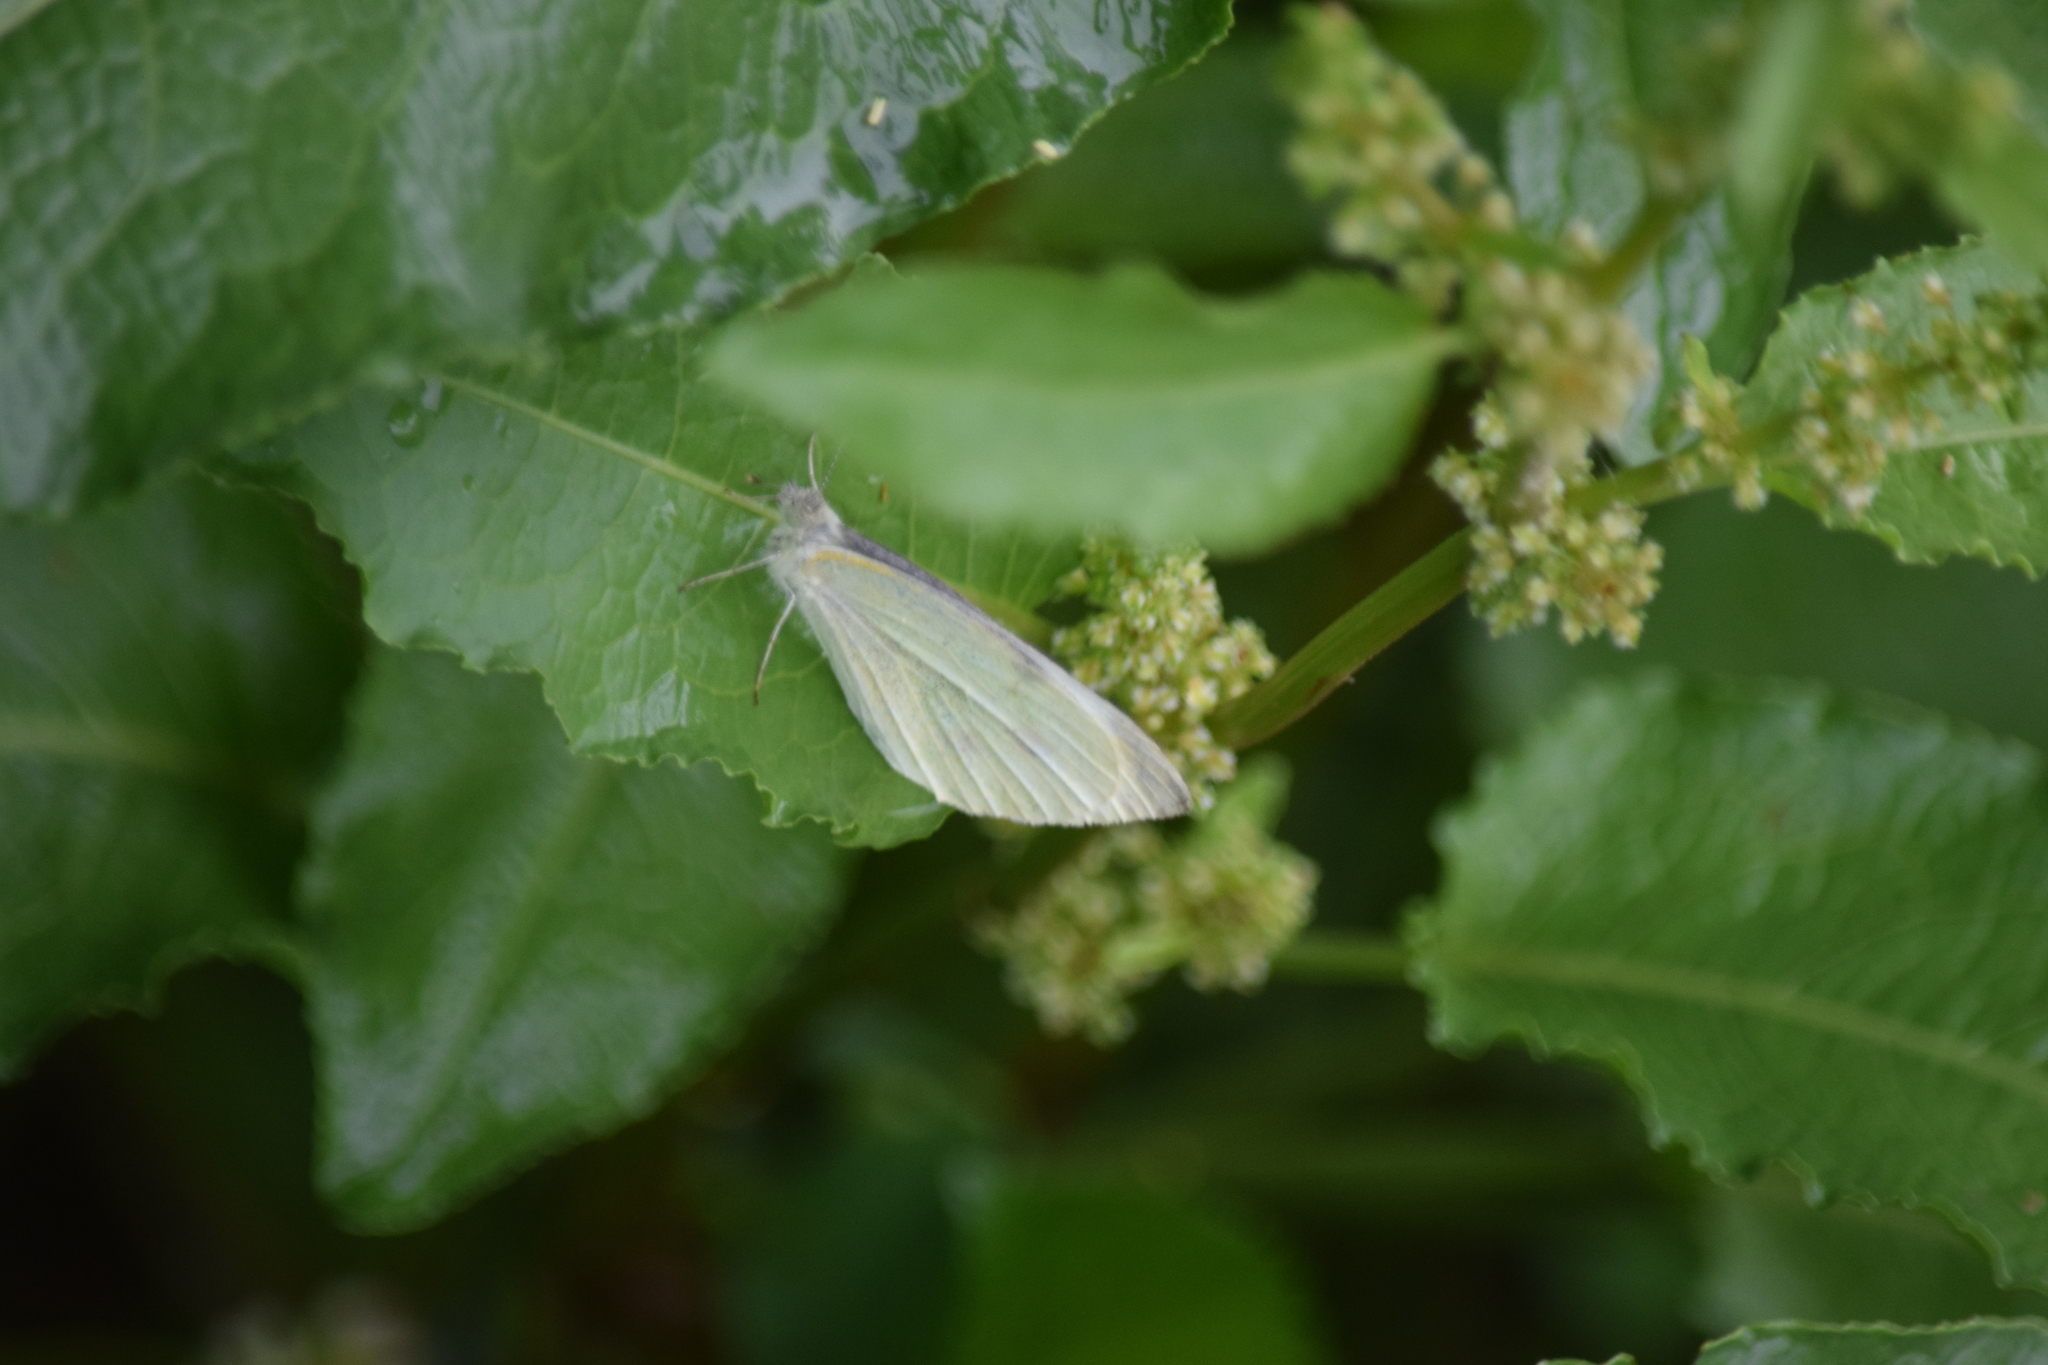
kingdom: Animalia
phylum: Arthropoda
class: Insecta
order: Lepidoptera
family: Pieridae
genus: Pieris
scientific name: Pieris rapae
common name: Small white
